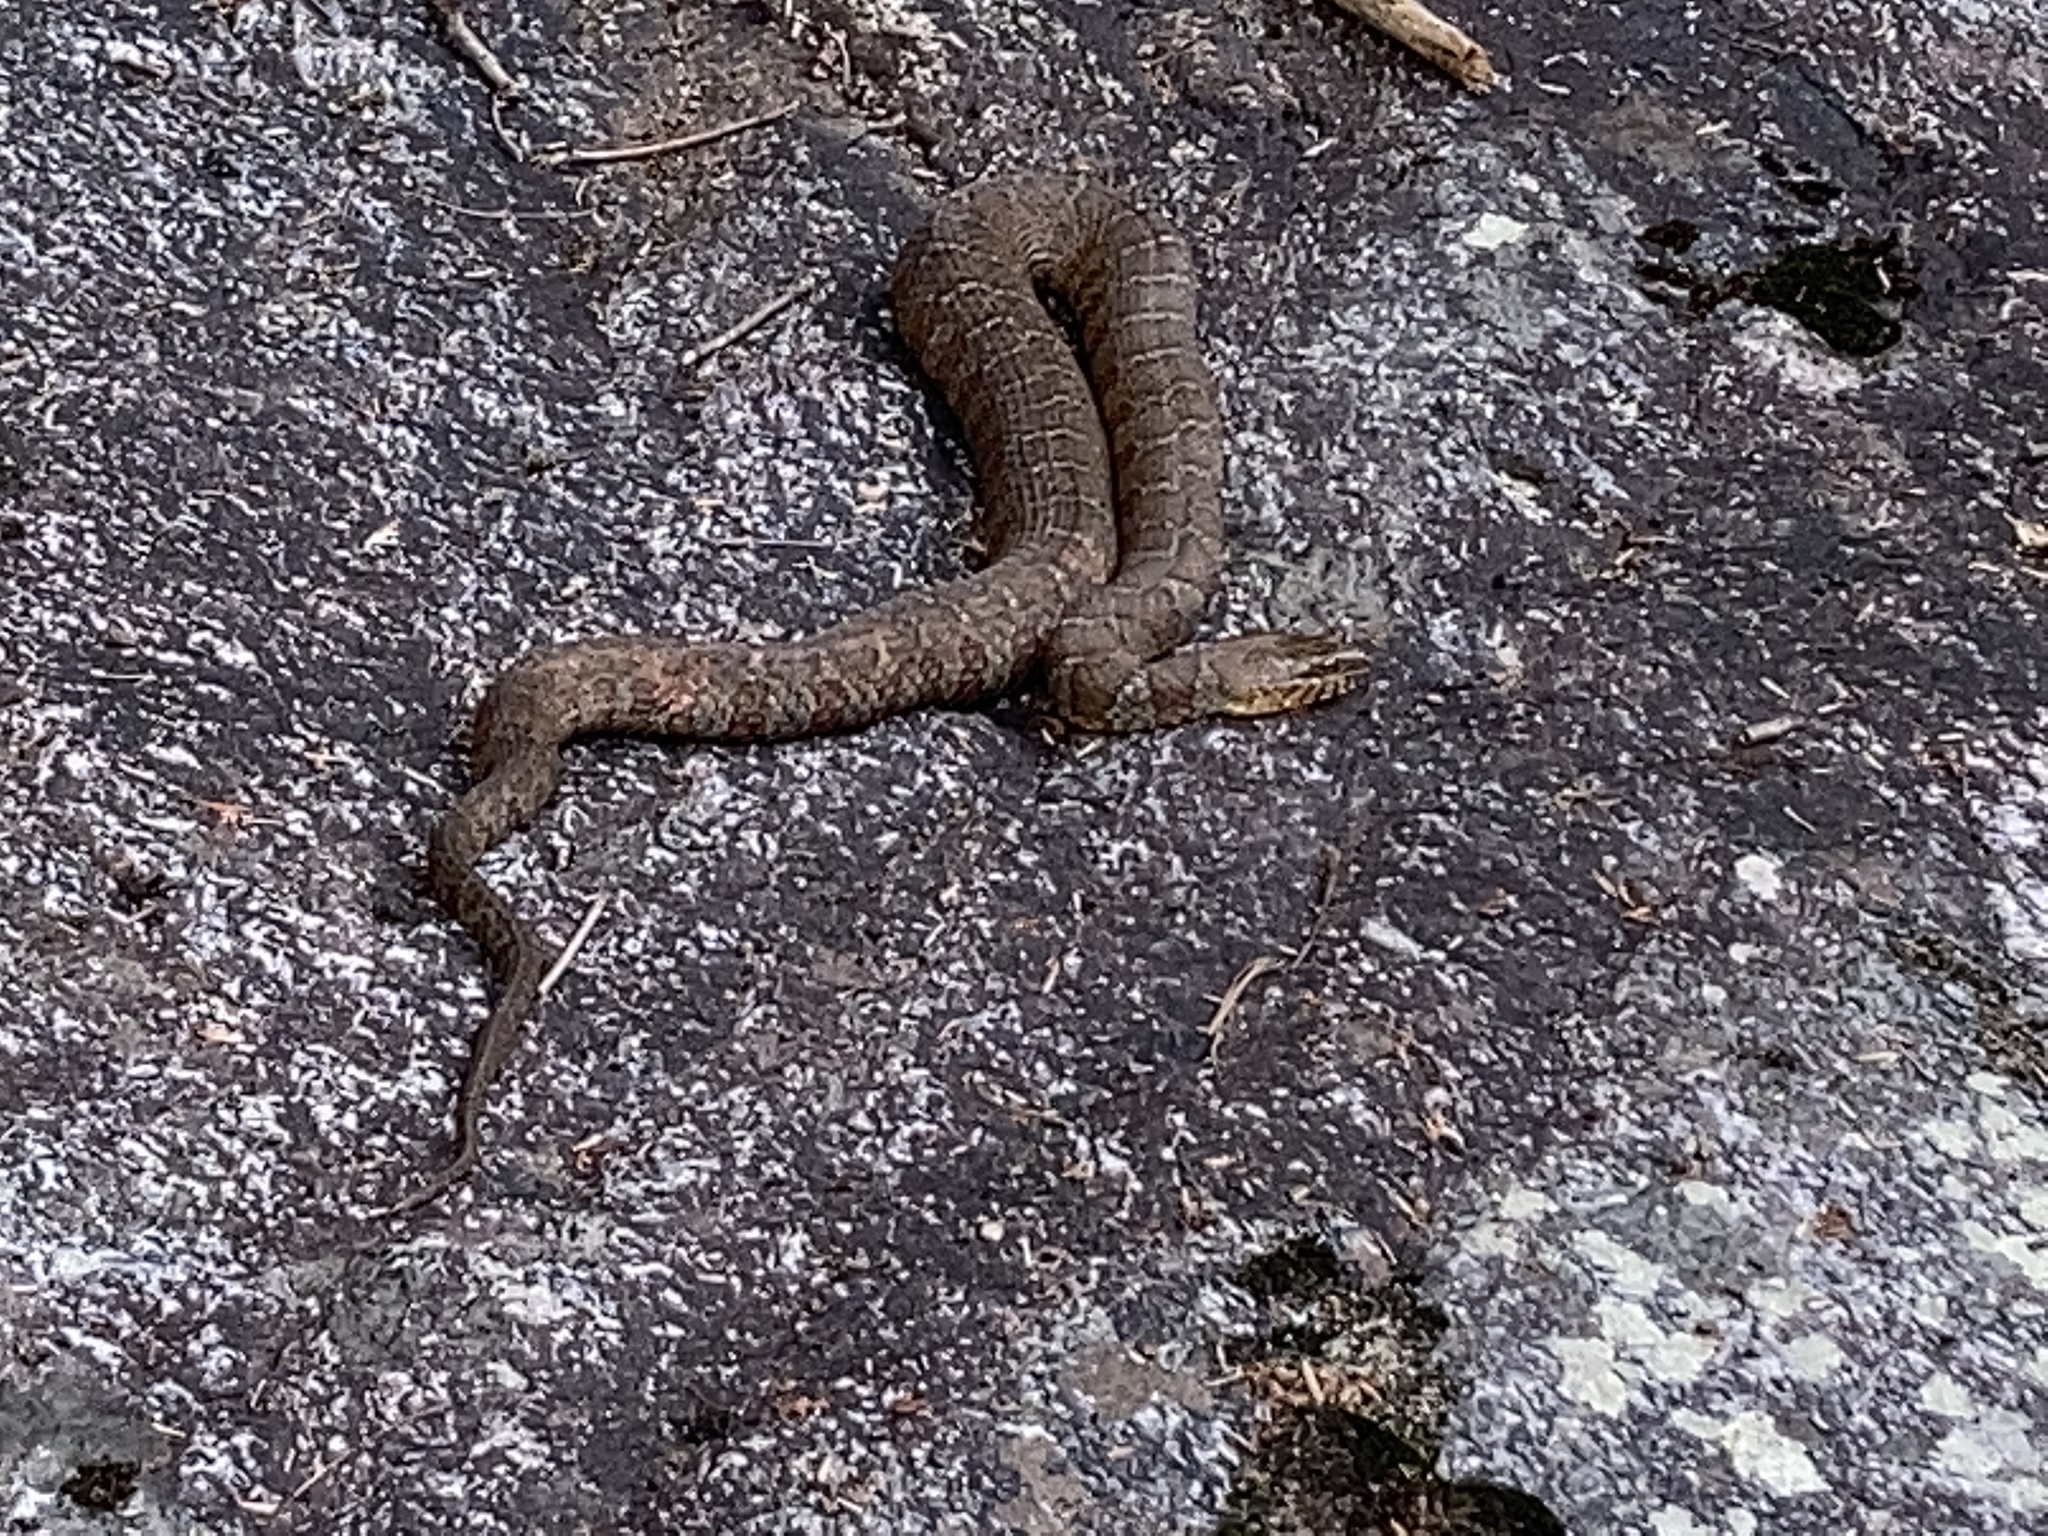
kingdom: Animalia
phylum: Chordata
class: Squamata
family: Colubridae
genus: Nerodia
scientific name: Nerodia sipedon
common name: Northern water snake
